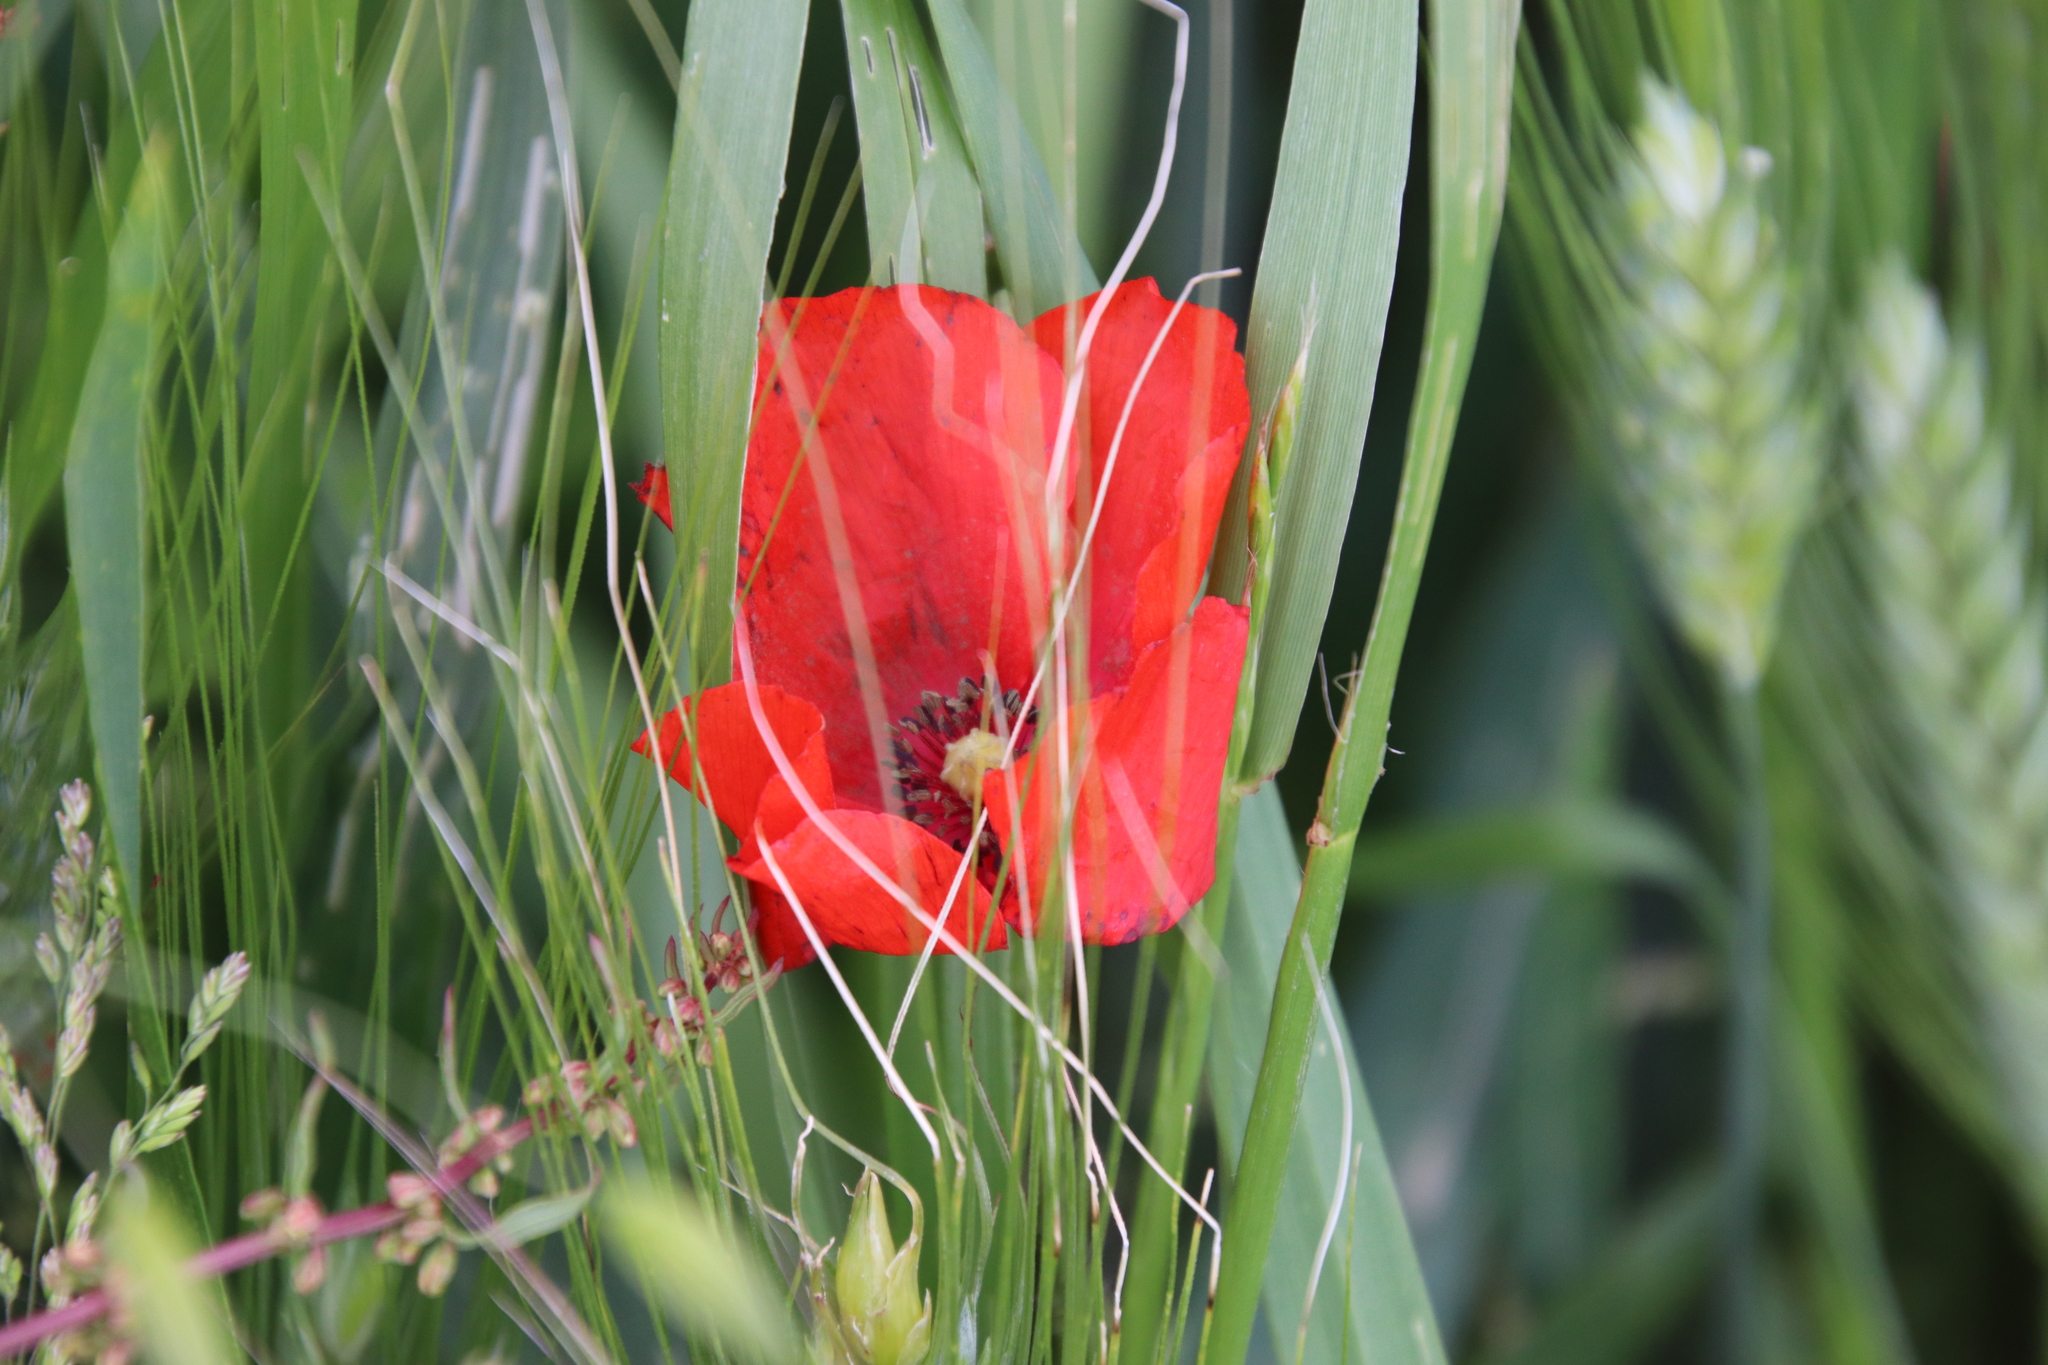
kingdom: Plantae
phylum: Tracheophyta
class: Magnoliopsida
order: Ranunculales
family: Papaveraceae
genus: Papaver
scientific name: Papaver rhoeas
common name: Corn poppy
